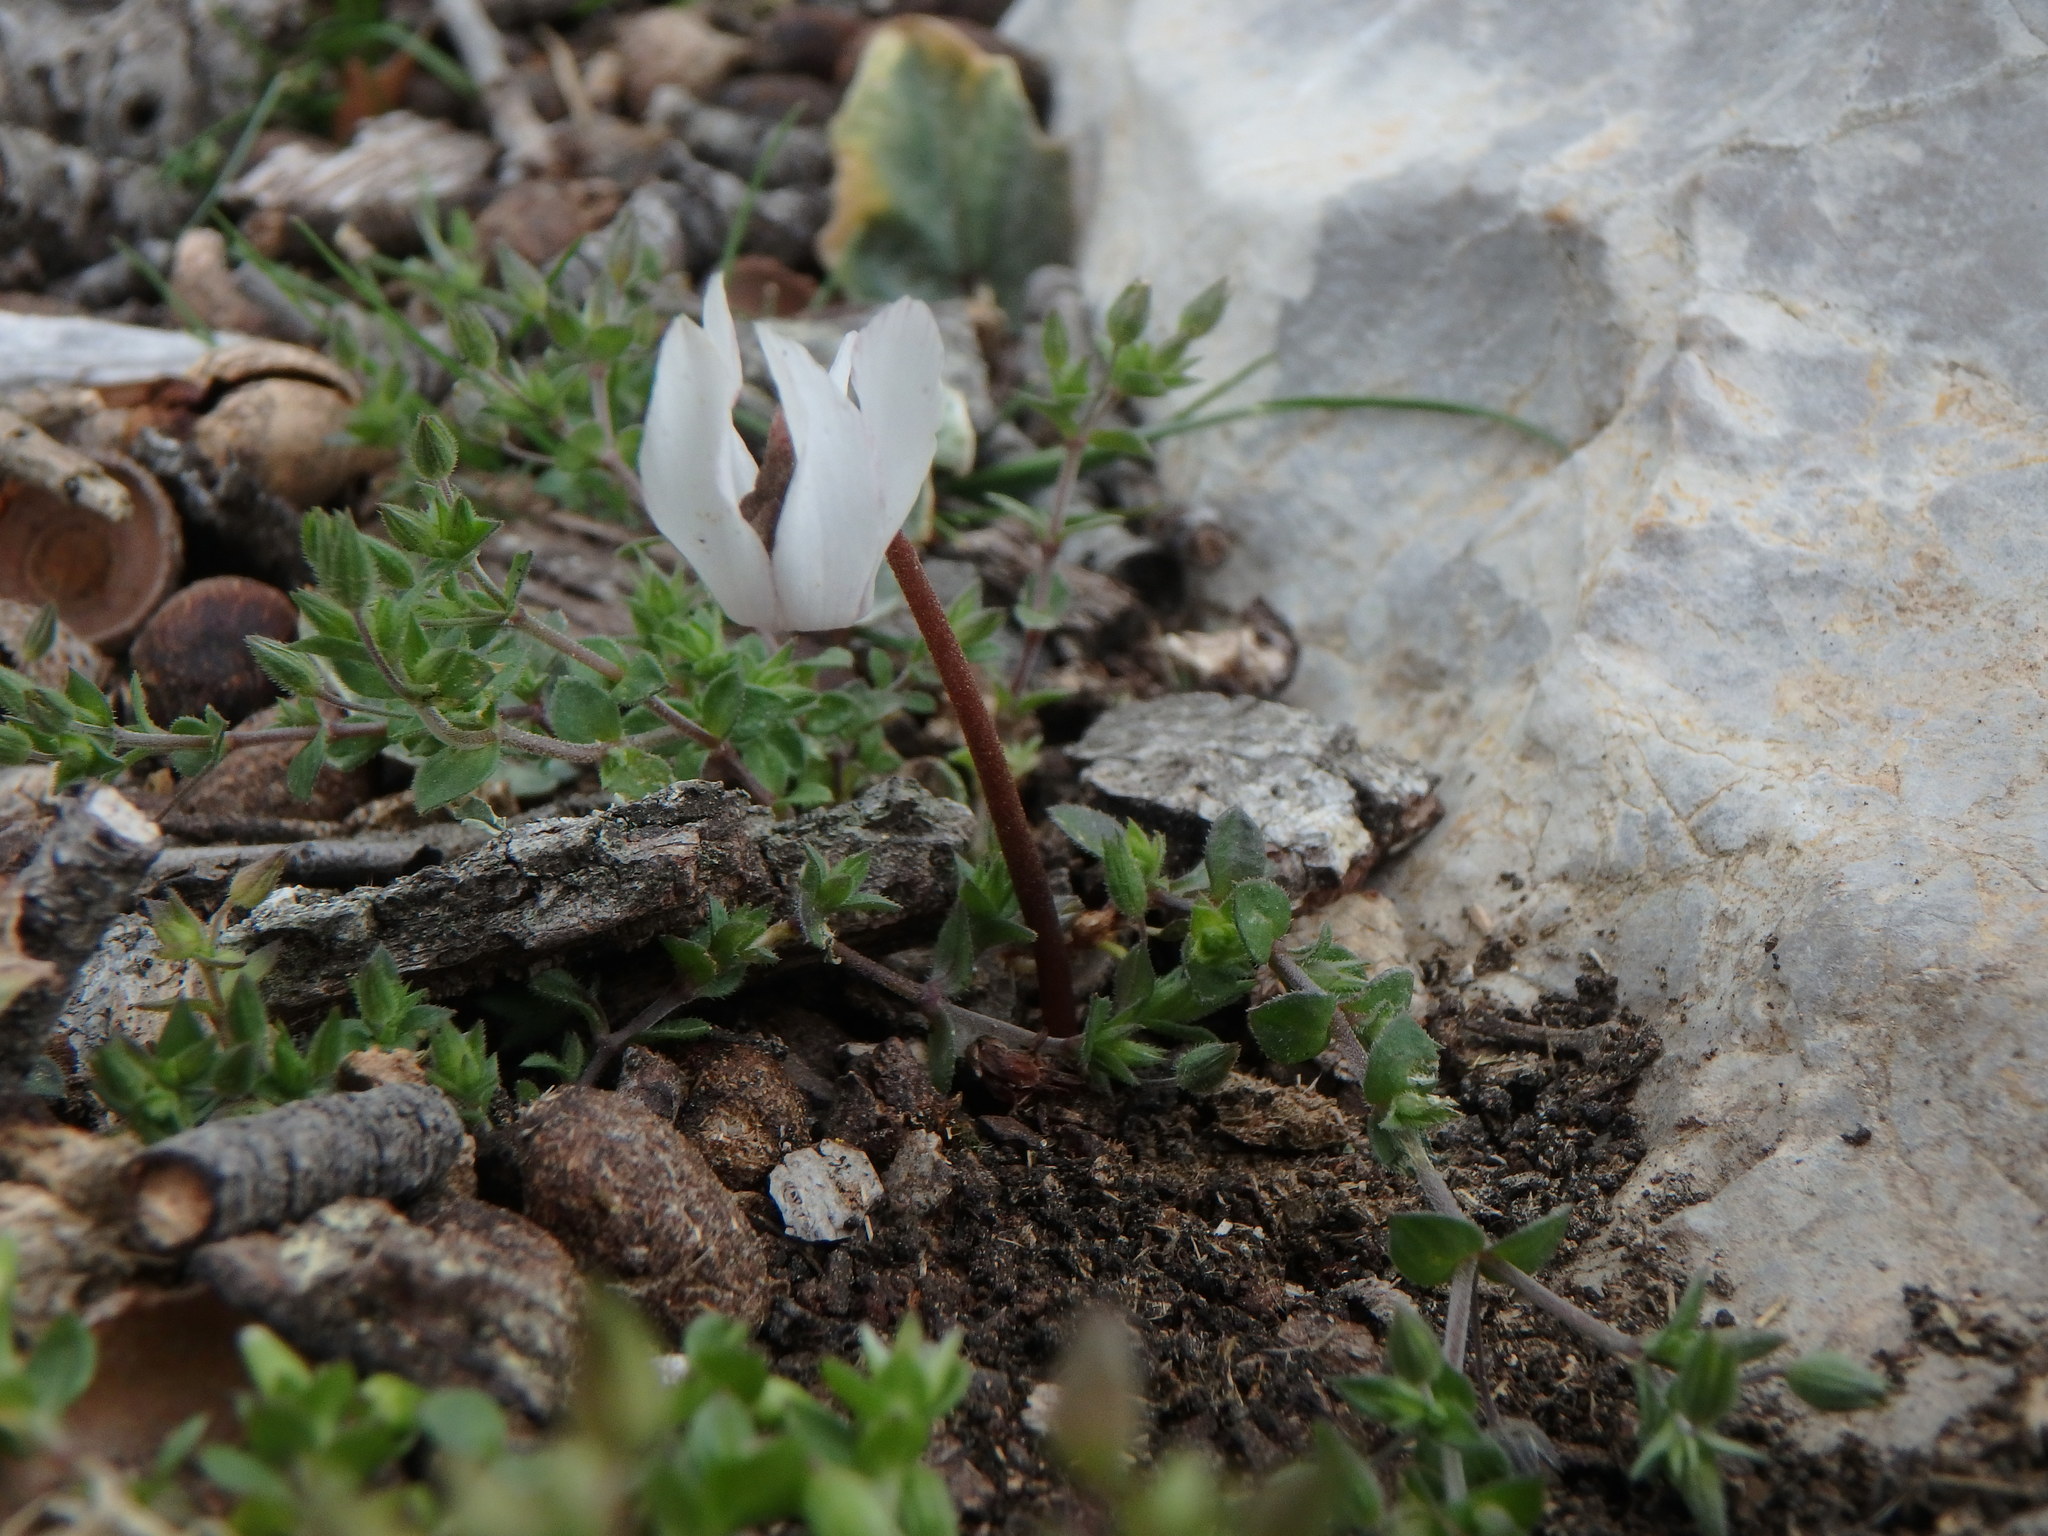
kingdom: Plantae
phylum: Tracheophyta
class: Magnoliopsida
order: Ericales
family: Primulaceae
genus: Cyclamen
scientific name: Cyclamen balearicum
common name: Majorca cyclamen
